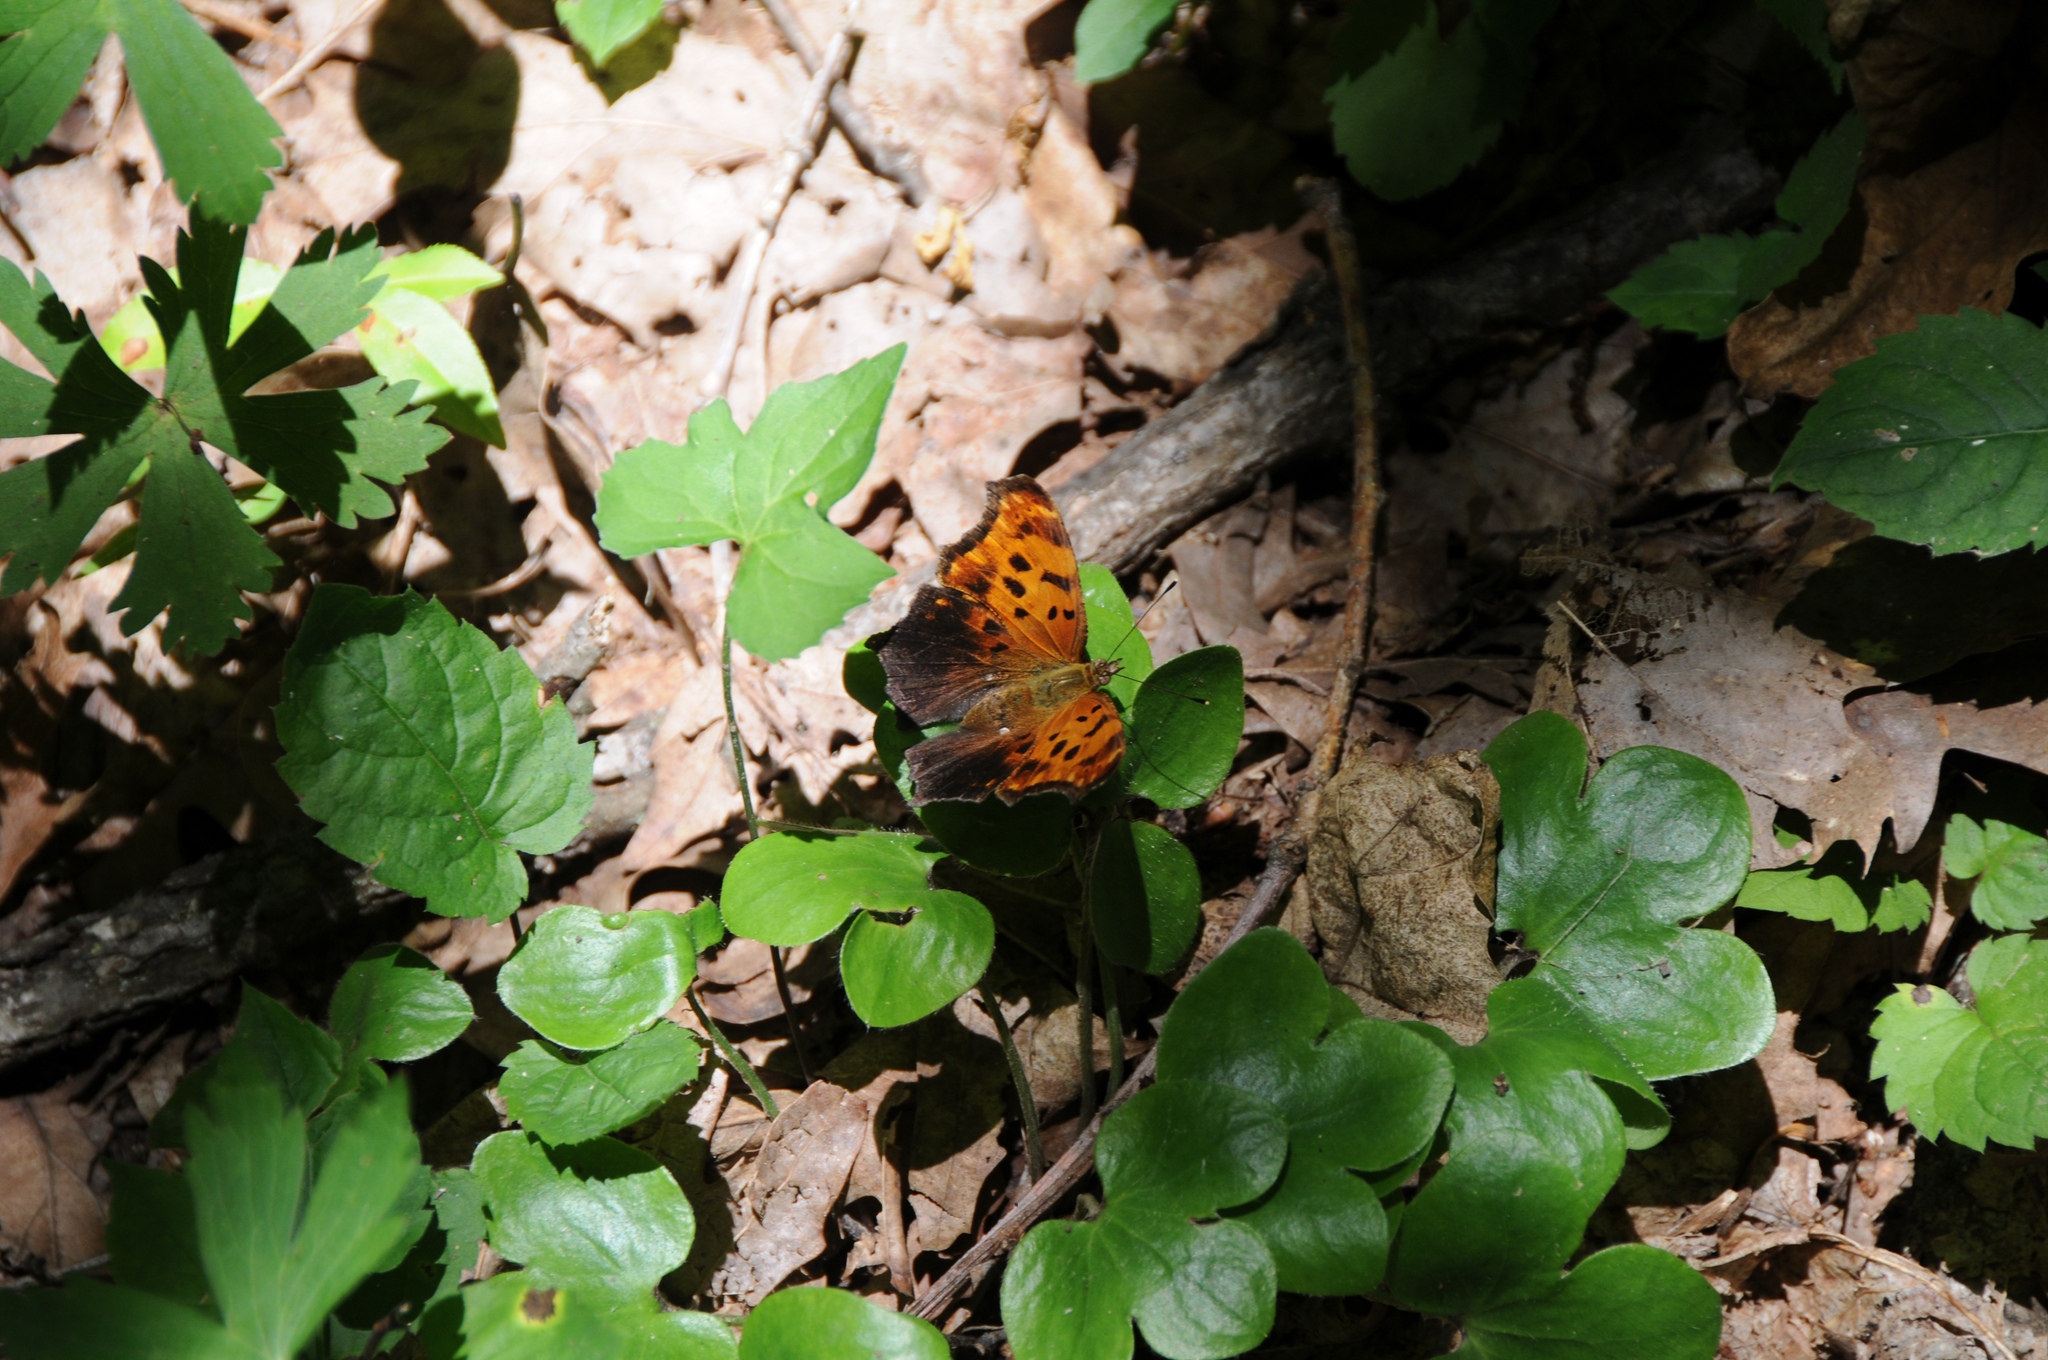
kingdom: Animalia
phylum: Arthropoda
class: Insecta
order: Lepidoptera
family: Nymphalidae
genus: Polygonia
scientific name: Polygonia interrogationis
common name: Question mark
